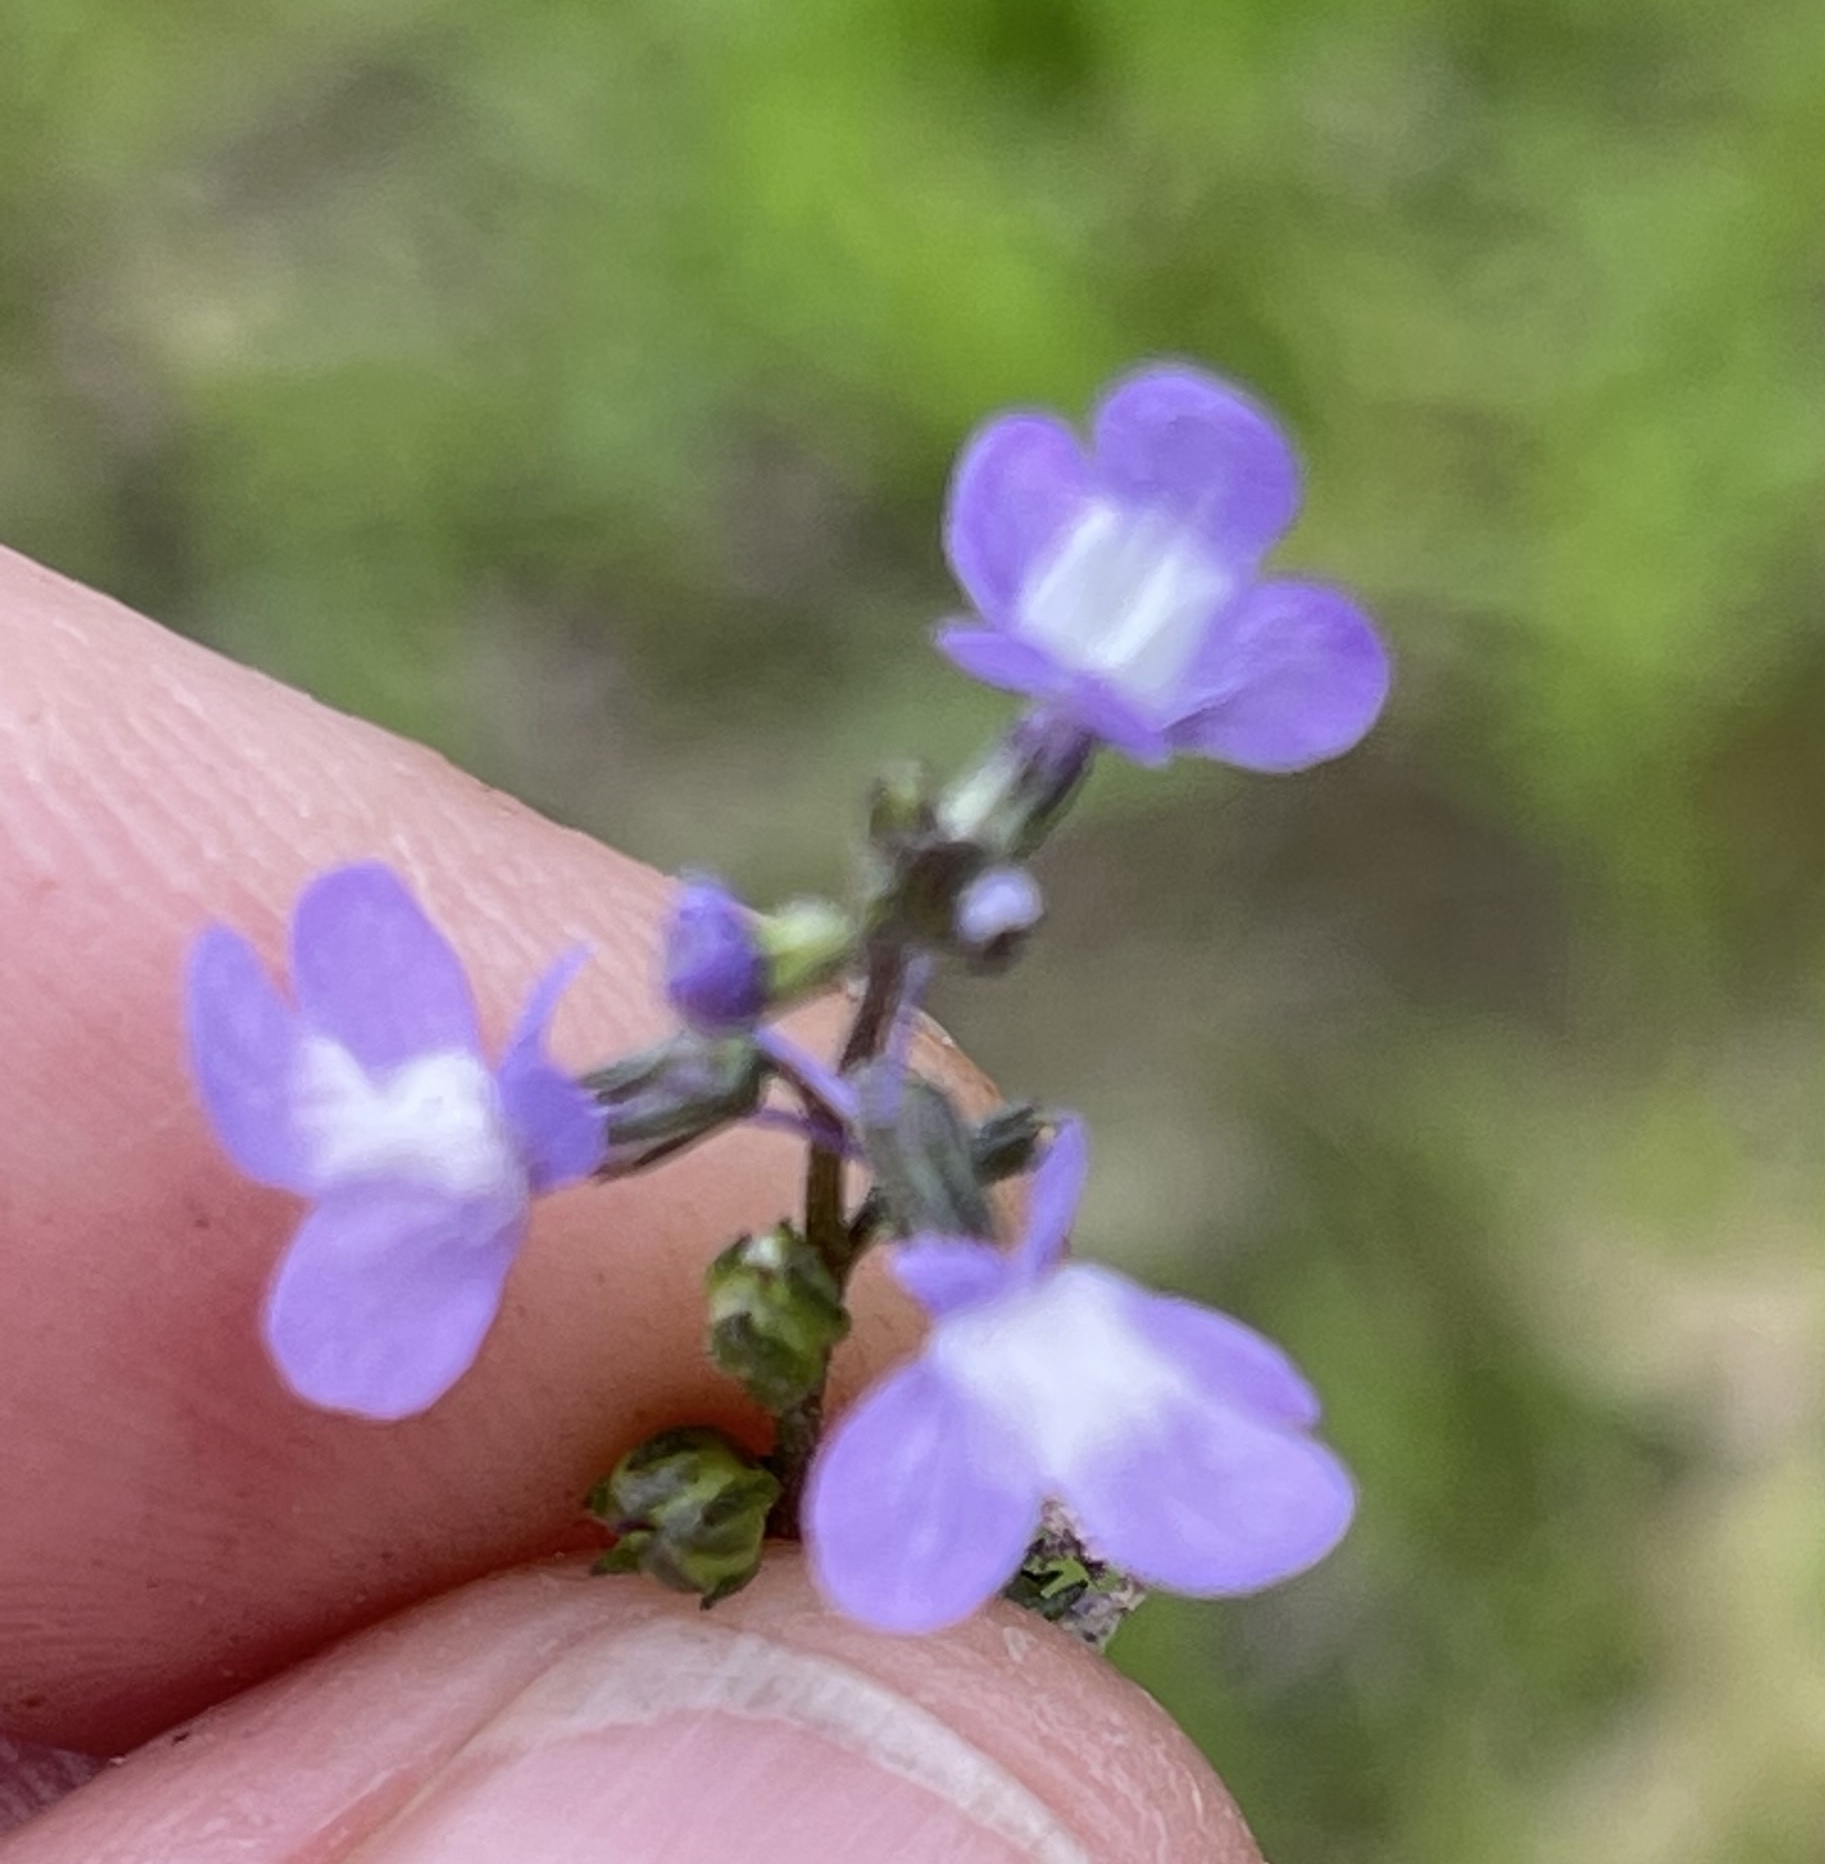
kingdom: Plantae
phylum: Tracheophyta
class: Magnoliopsida
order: Lamiales
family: Plantaginaceae
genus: Nuttallanthus
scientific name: Nuttallanthus canadensis
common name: Blue toadflax
